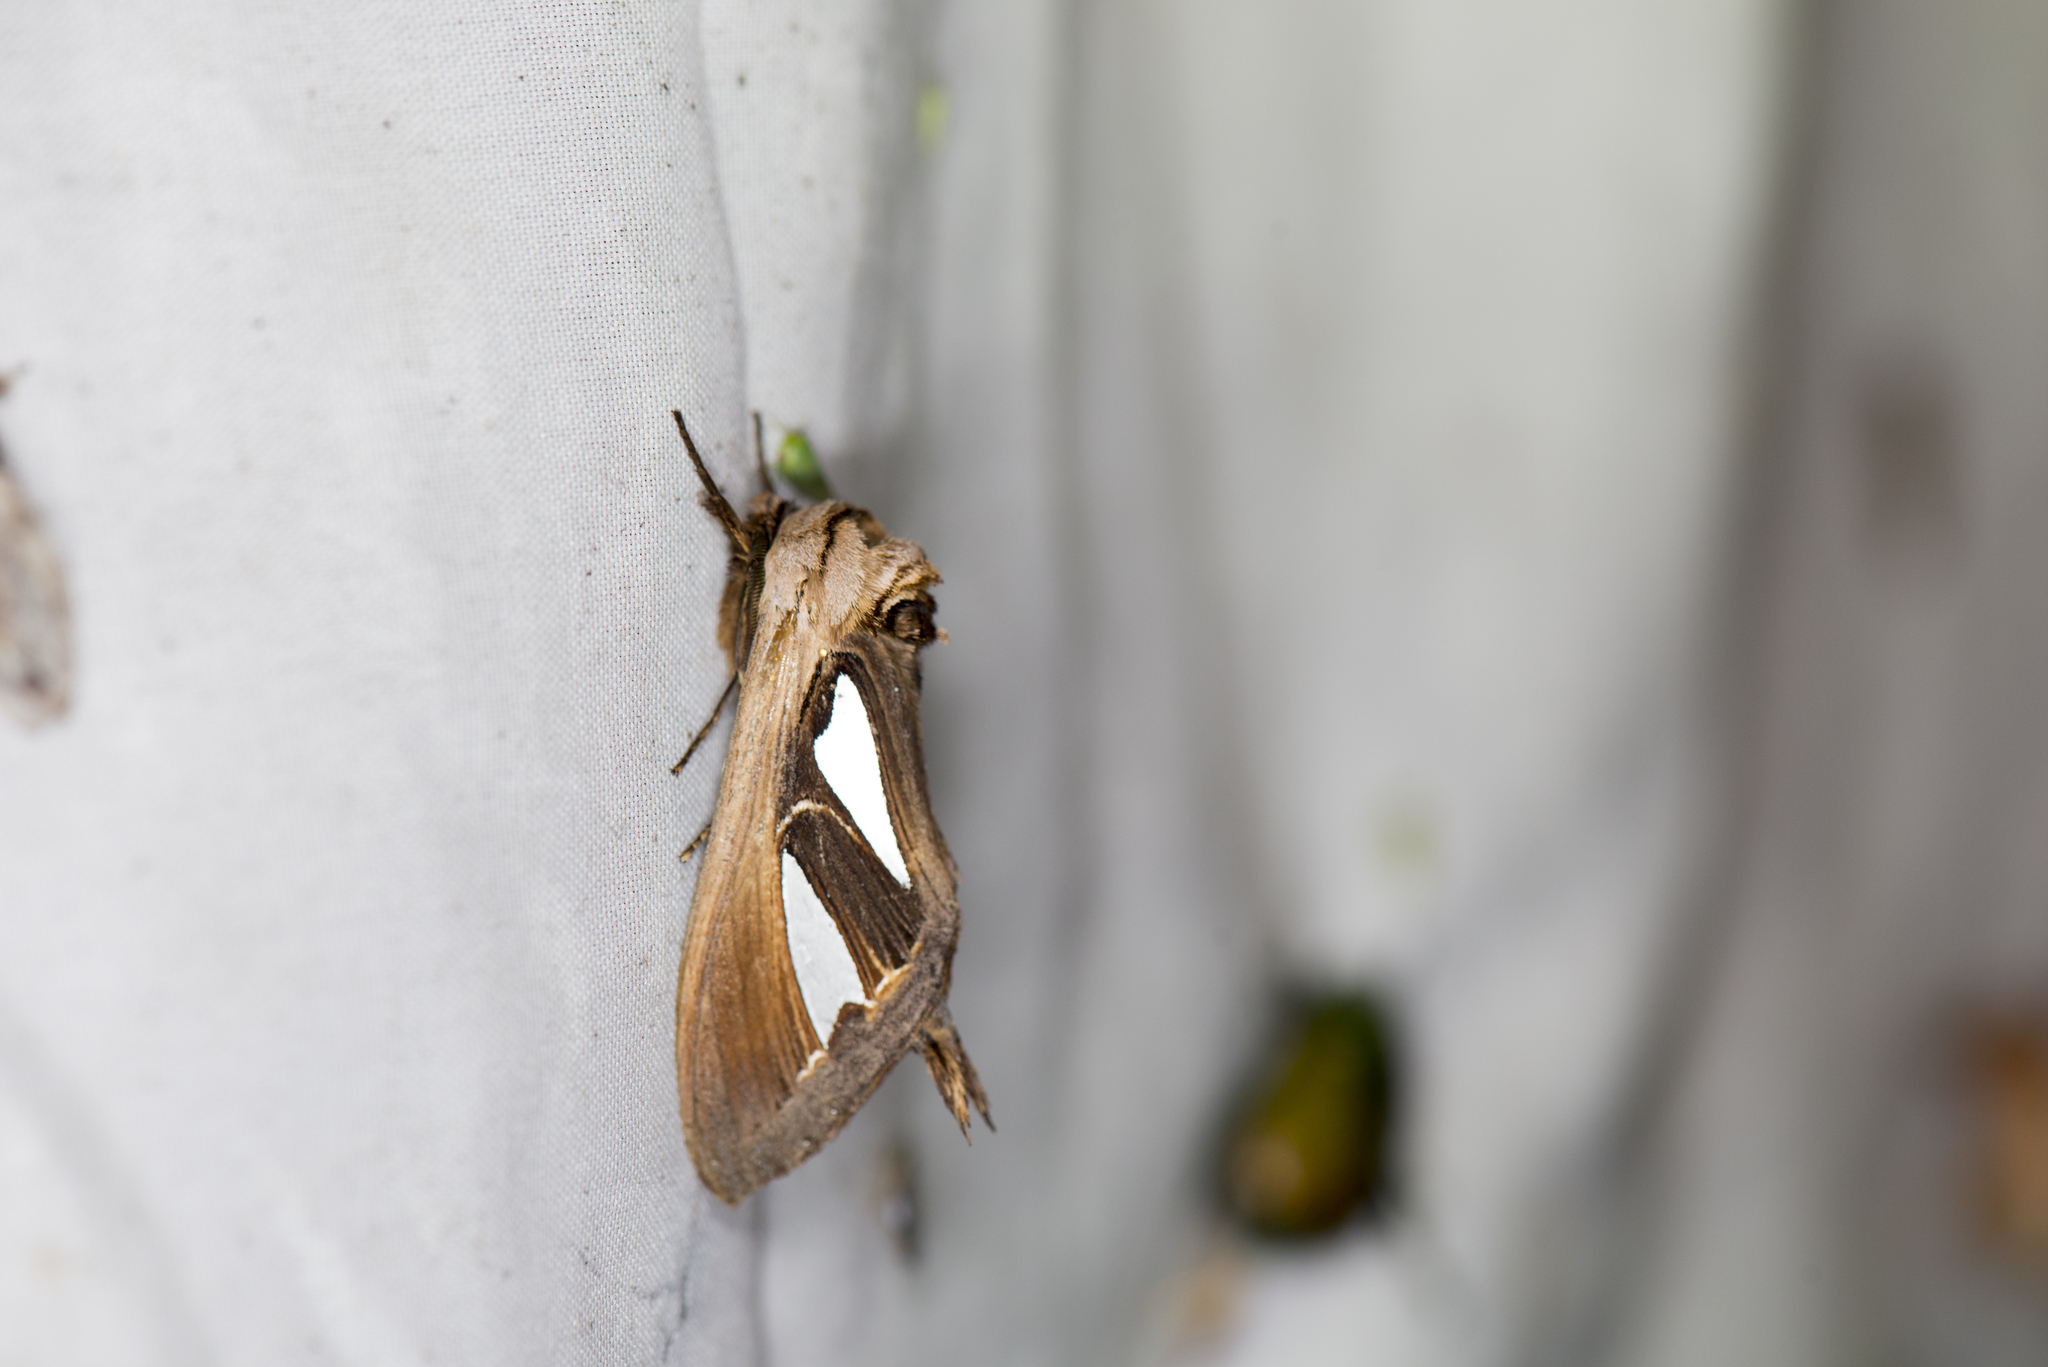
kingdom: Animalia
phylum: Arthropoda
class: Insecta
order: Lepidoptera
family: Notodontidae
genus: Tarsolepis
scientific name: Tarsolepis japonica
